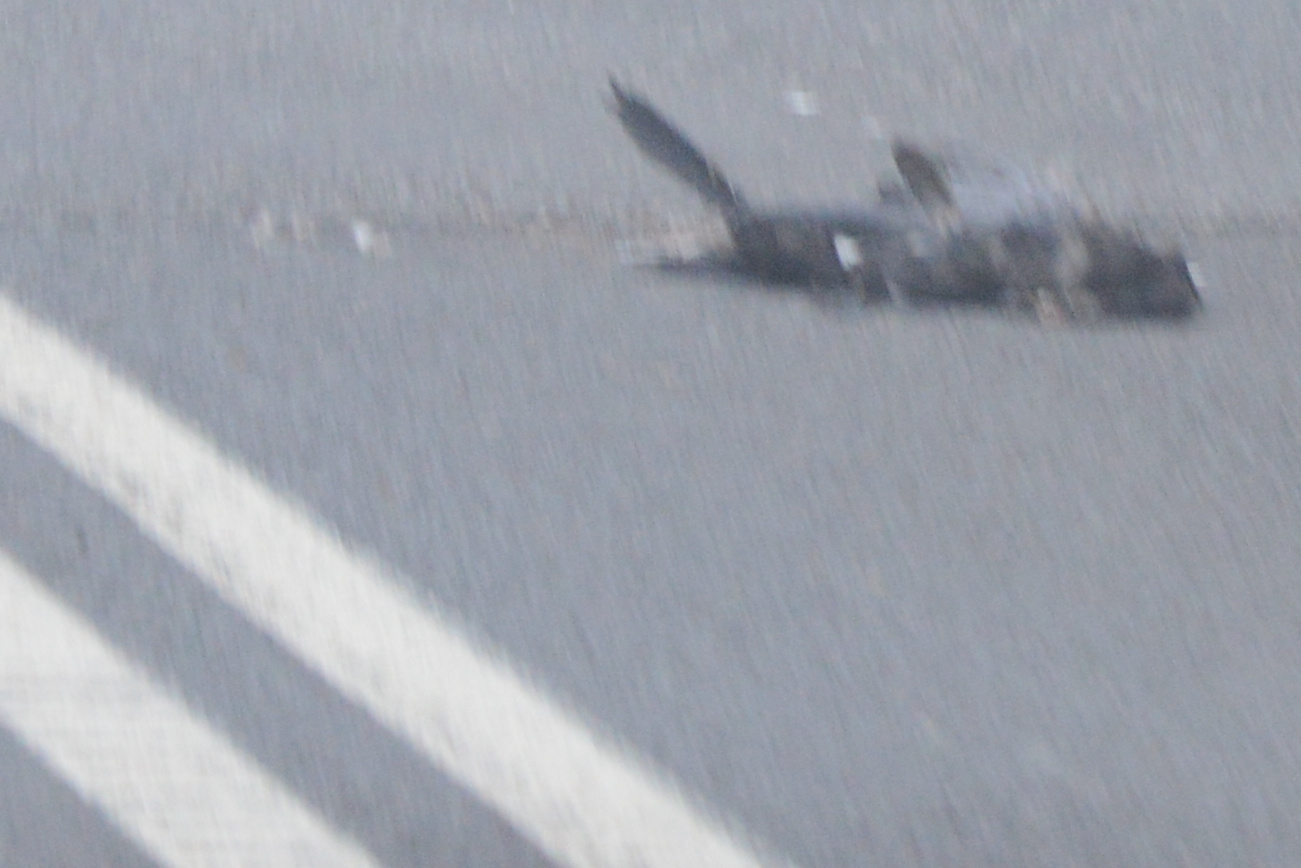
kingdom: Animalia
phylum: Chordata
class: Aves
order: Passeriformes
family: Corvidae
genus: Corvus
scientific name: Corvus tasmanicus
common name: Forest raven
